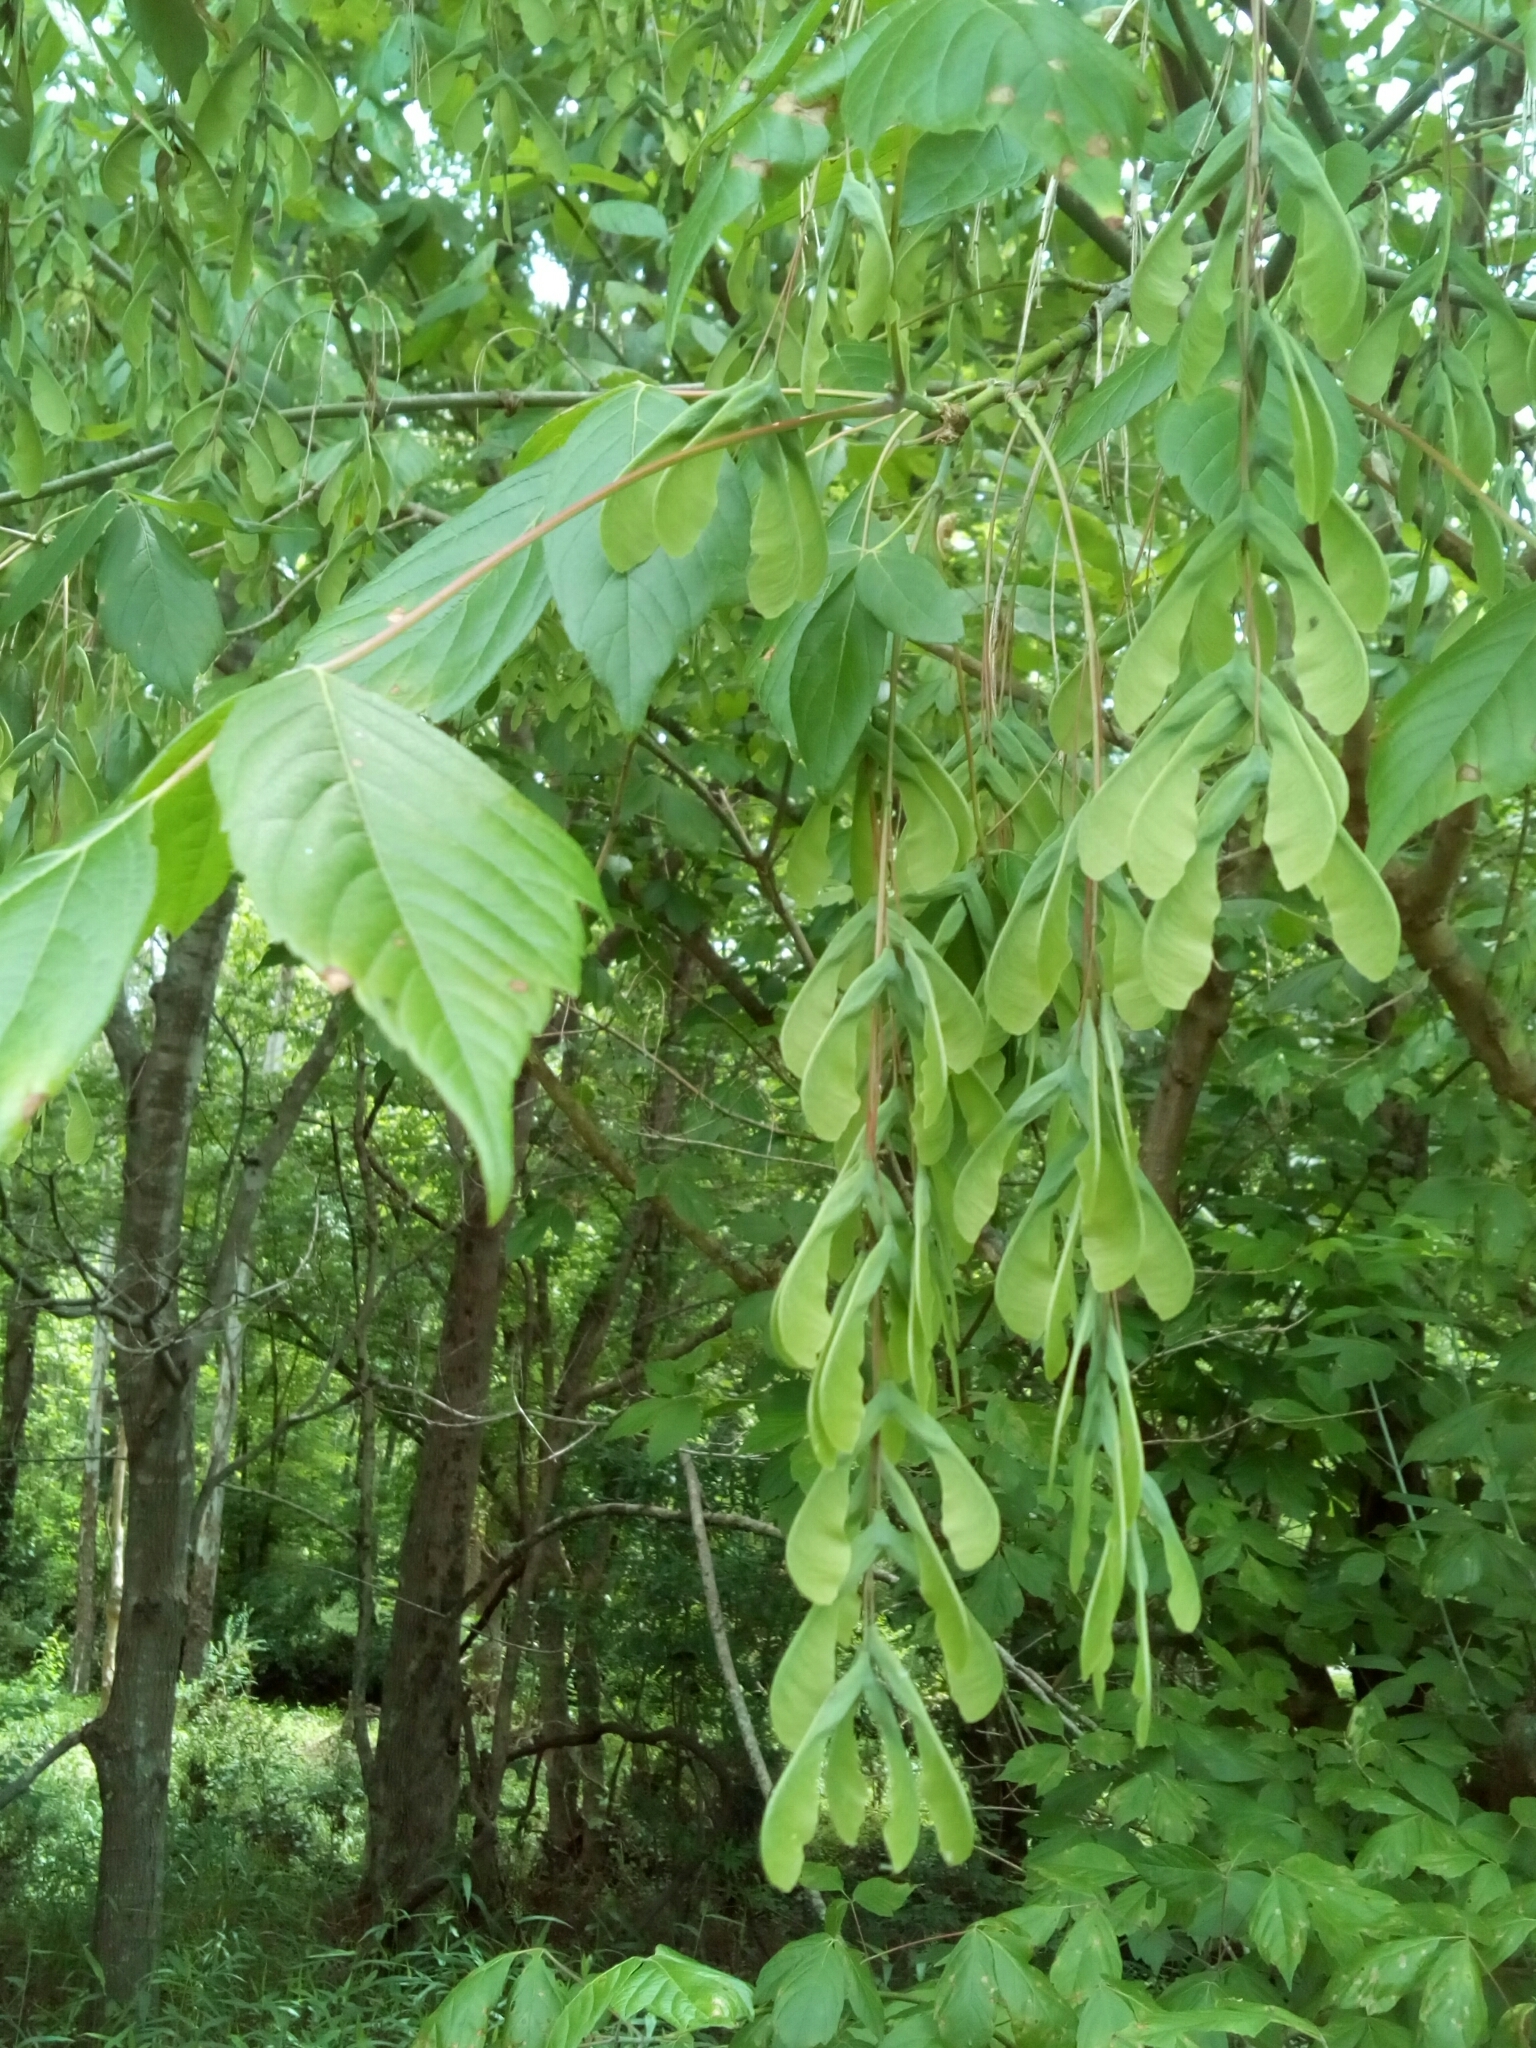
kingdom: Plantae
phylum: Tracheophyta
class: Magnoliopsida
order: Sapindales
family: Sapindaceae
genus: Acer
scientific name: Acer negundo
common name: Ashleaf maple
